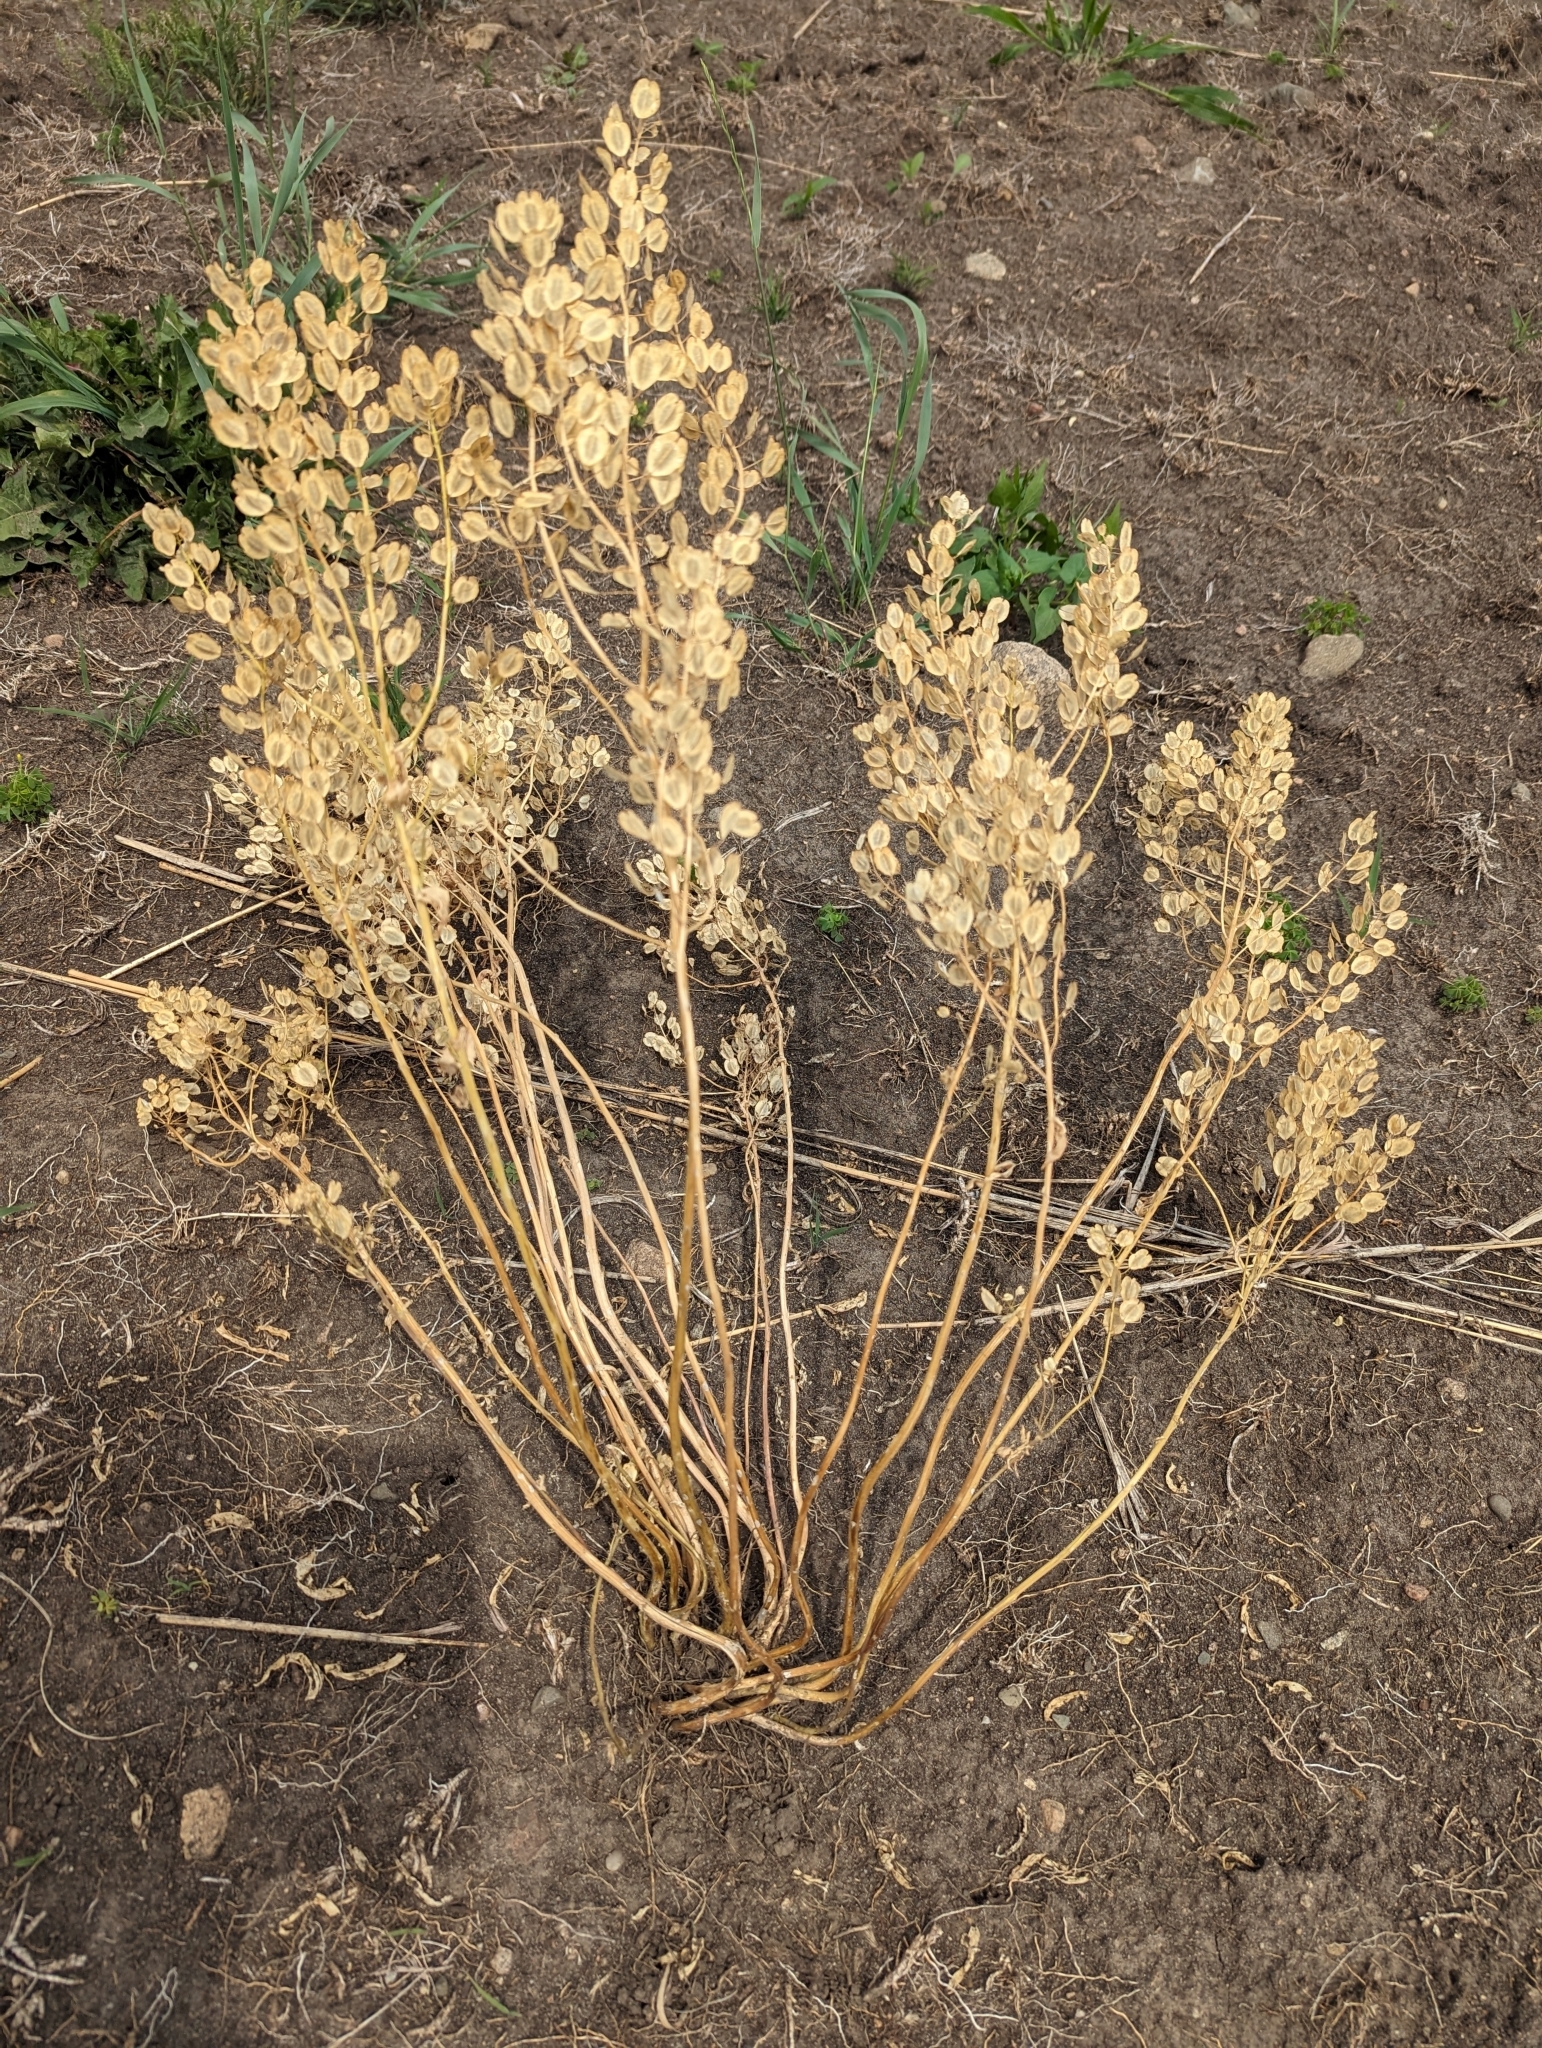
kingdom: Plantae
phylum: Tracheophyta
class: Magnoliopsida
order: Brassicales
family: Brassicaceae
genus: Thlaspi
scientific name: Thlaspi arvense
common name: Field pennycress
